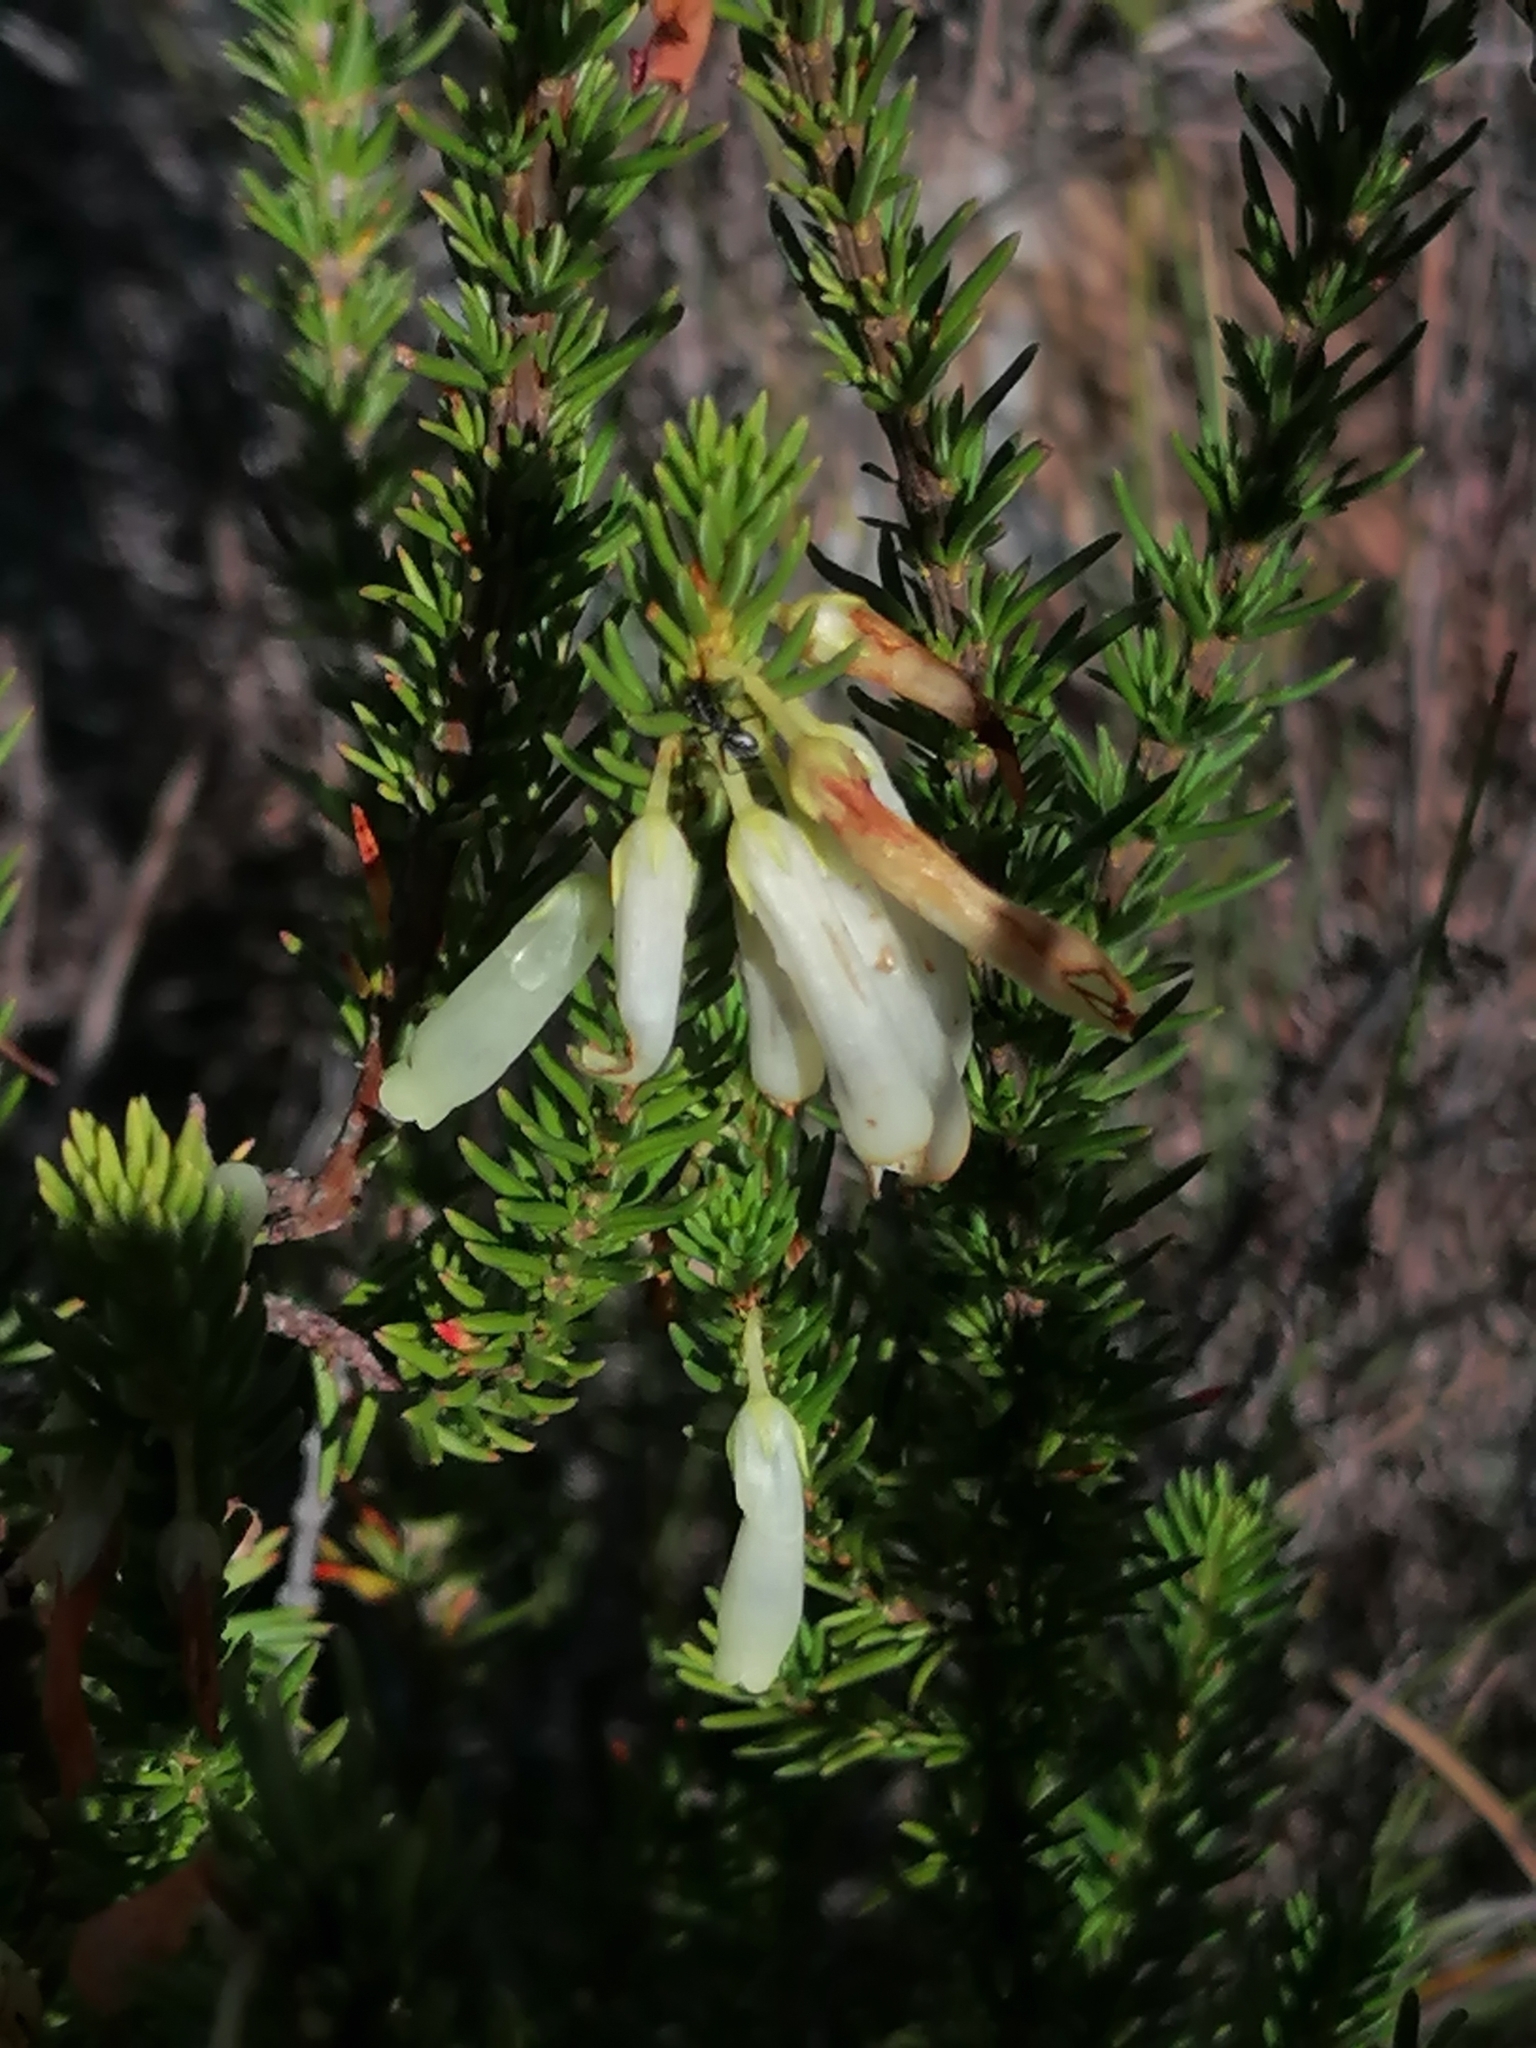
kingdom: Plantae
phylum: Tracheophyta
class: Magnoliopsida
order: Ericales
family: Ericaceae
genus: Erica
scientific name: Erica mammosa
